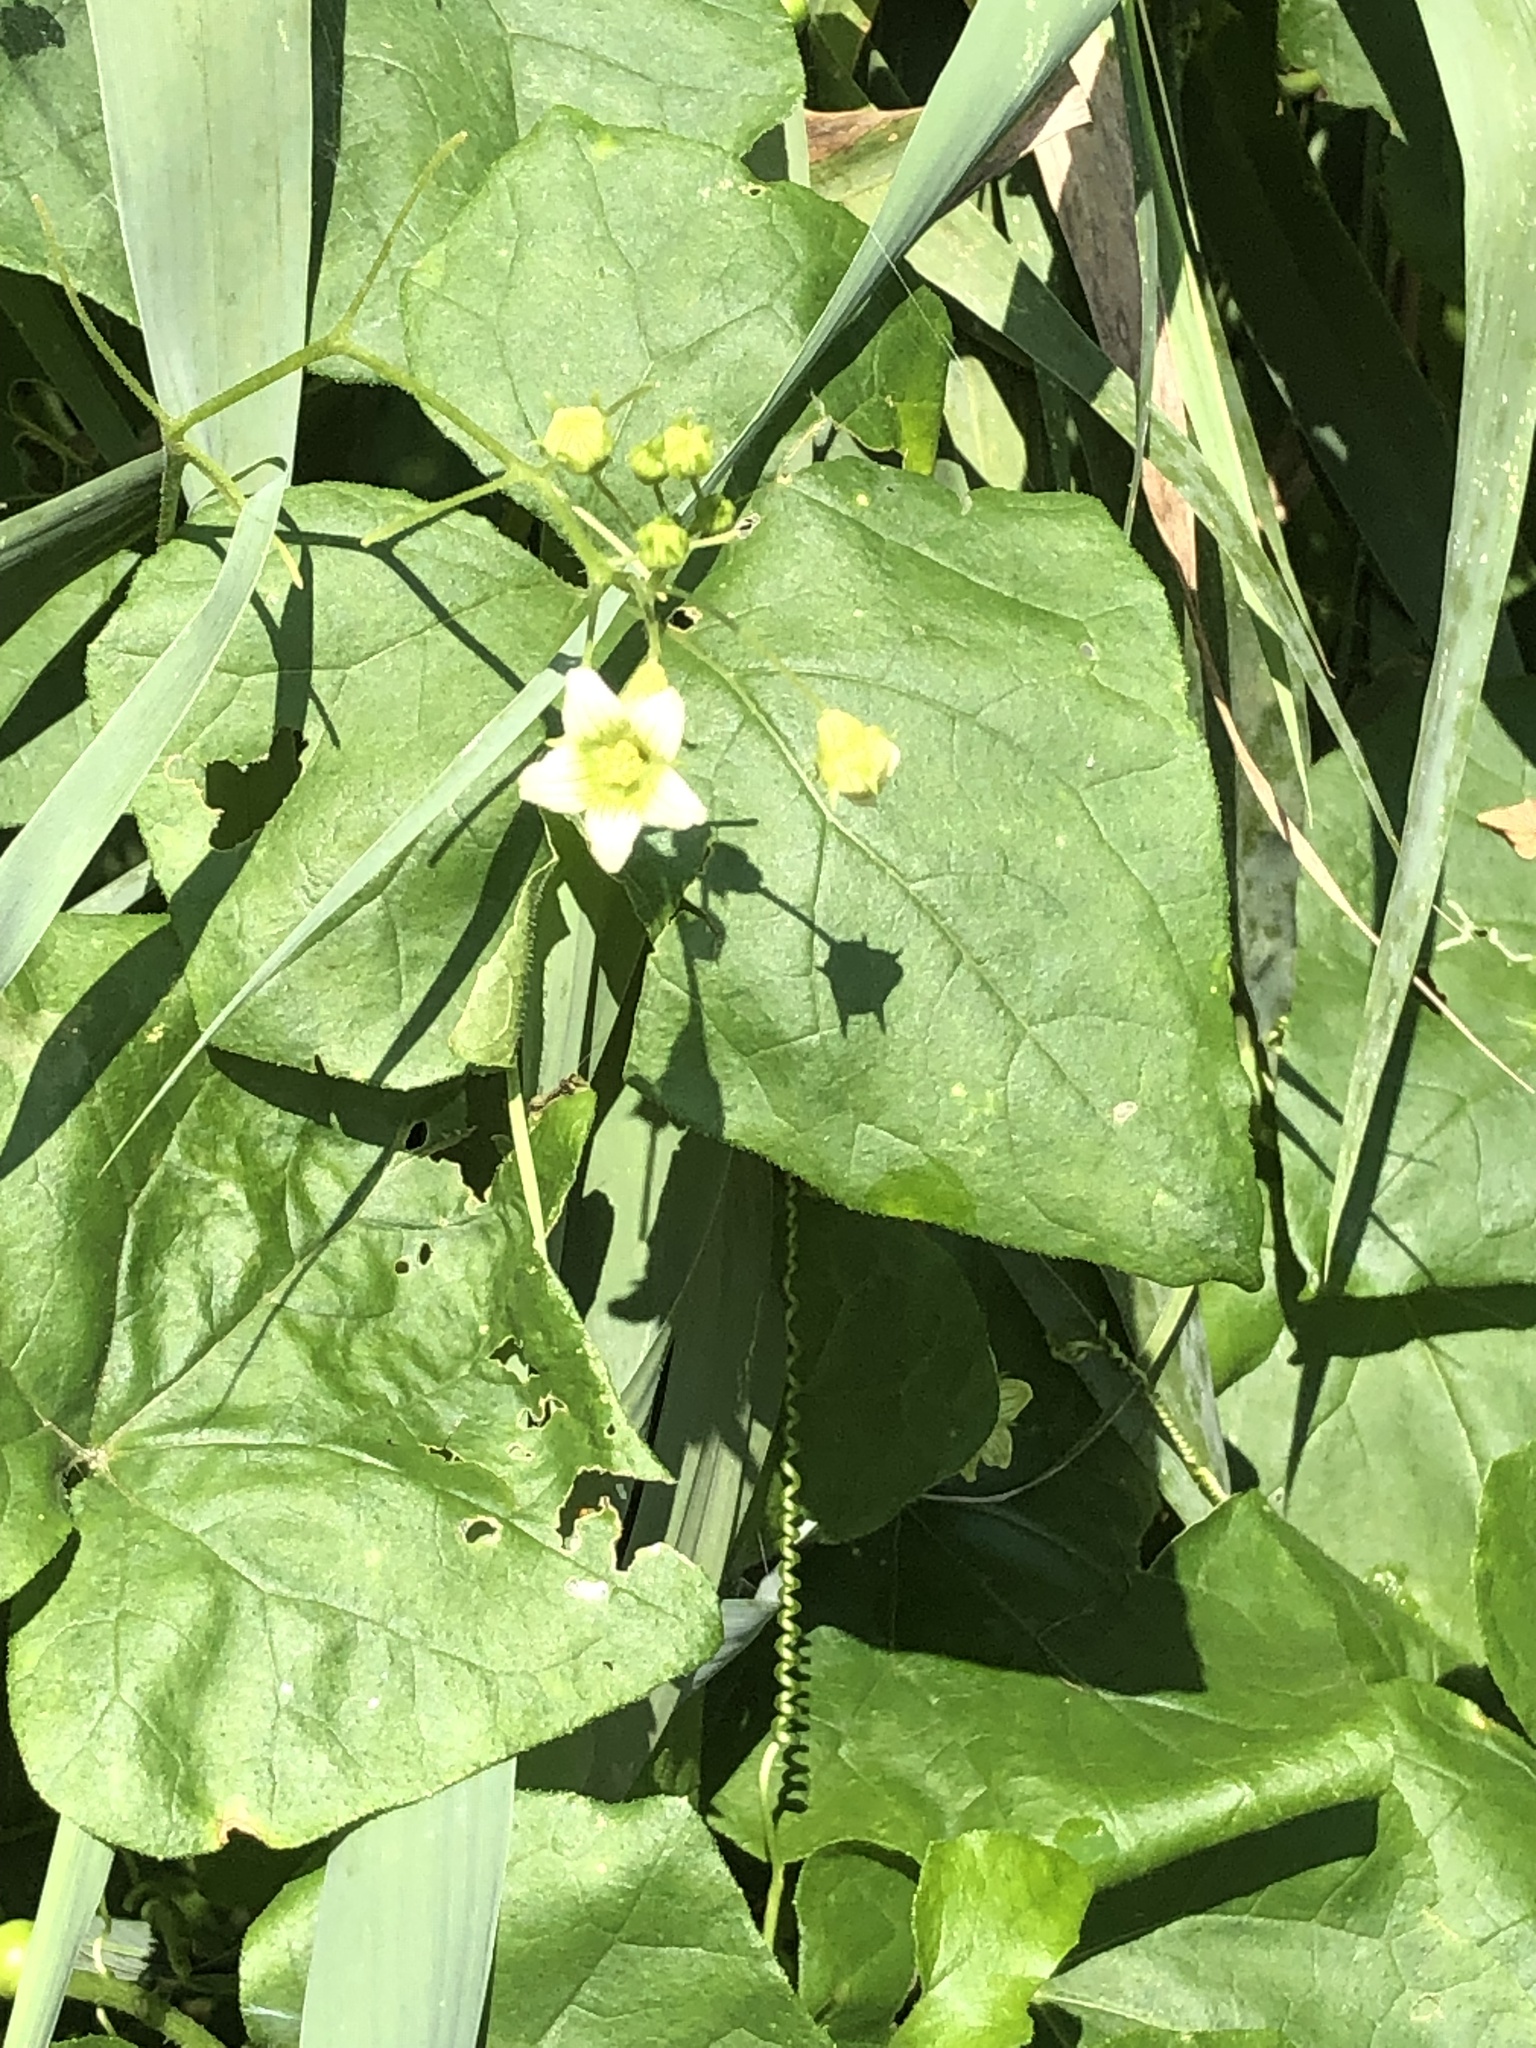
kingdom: Plantae
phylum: Tracheophyta
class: Magnoliopsida
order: Cucurbitales
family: Cucurbitaceae
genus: Bryonia
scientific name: Bryonia cretica
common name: Cretan bryony
